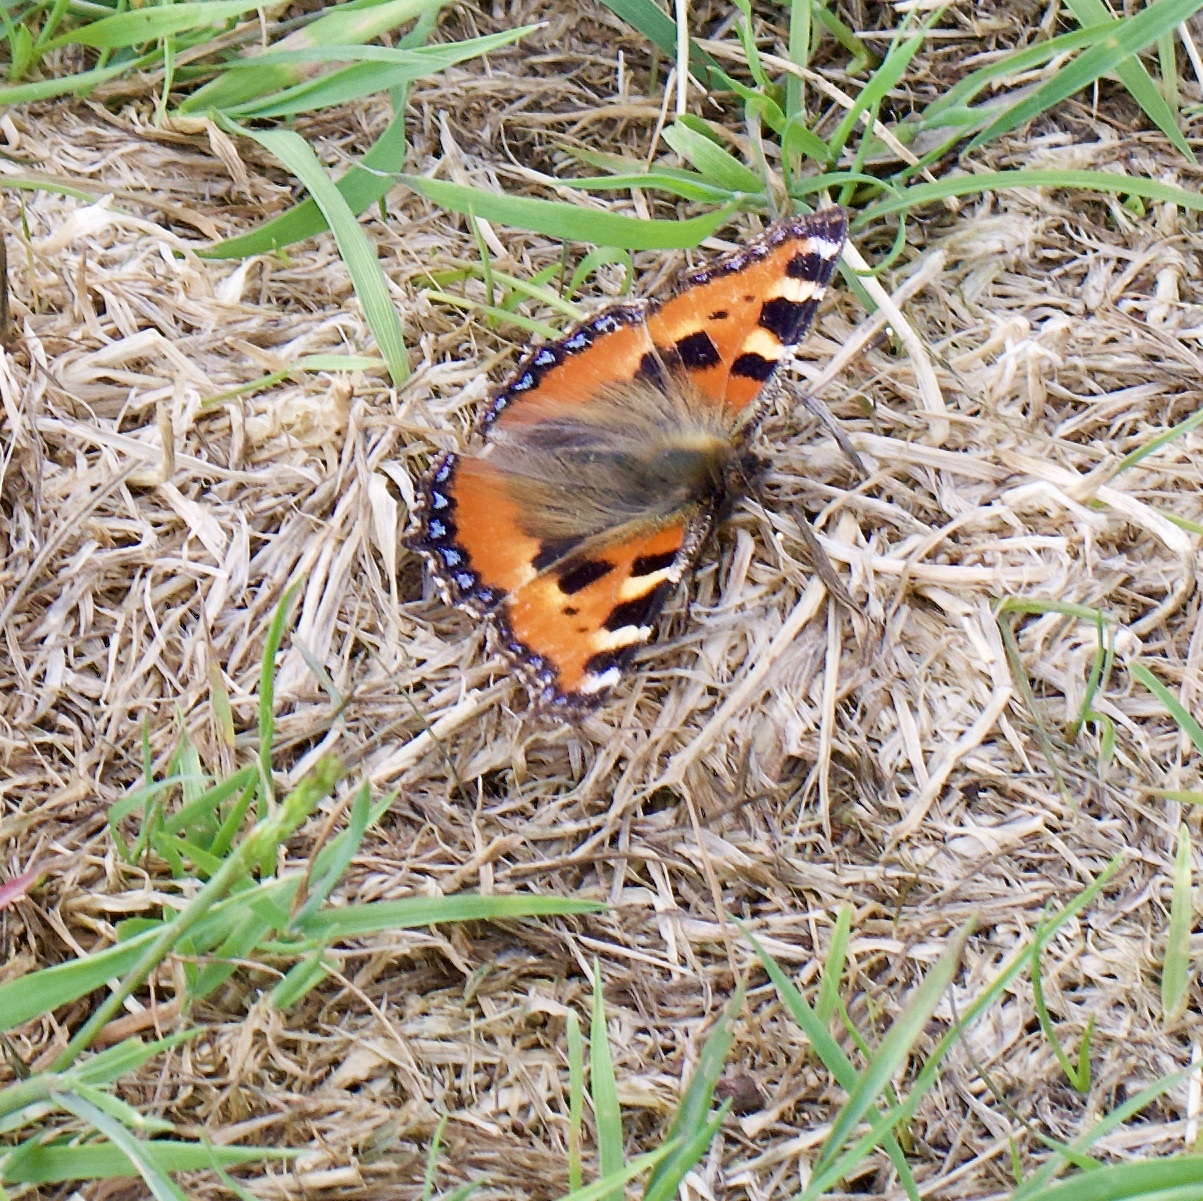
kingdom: Animalia
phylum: Arthropoda
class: Insecta
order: Lepidoptera
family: Nymphalidae
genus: Aglais
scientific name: Aglais urticae
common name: Small tortoiseshell
